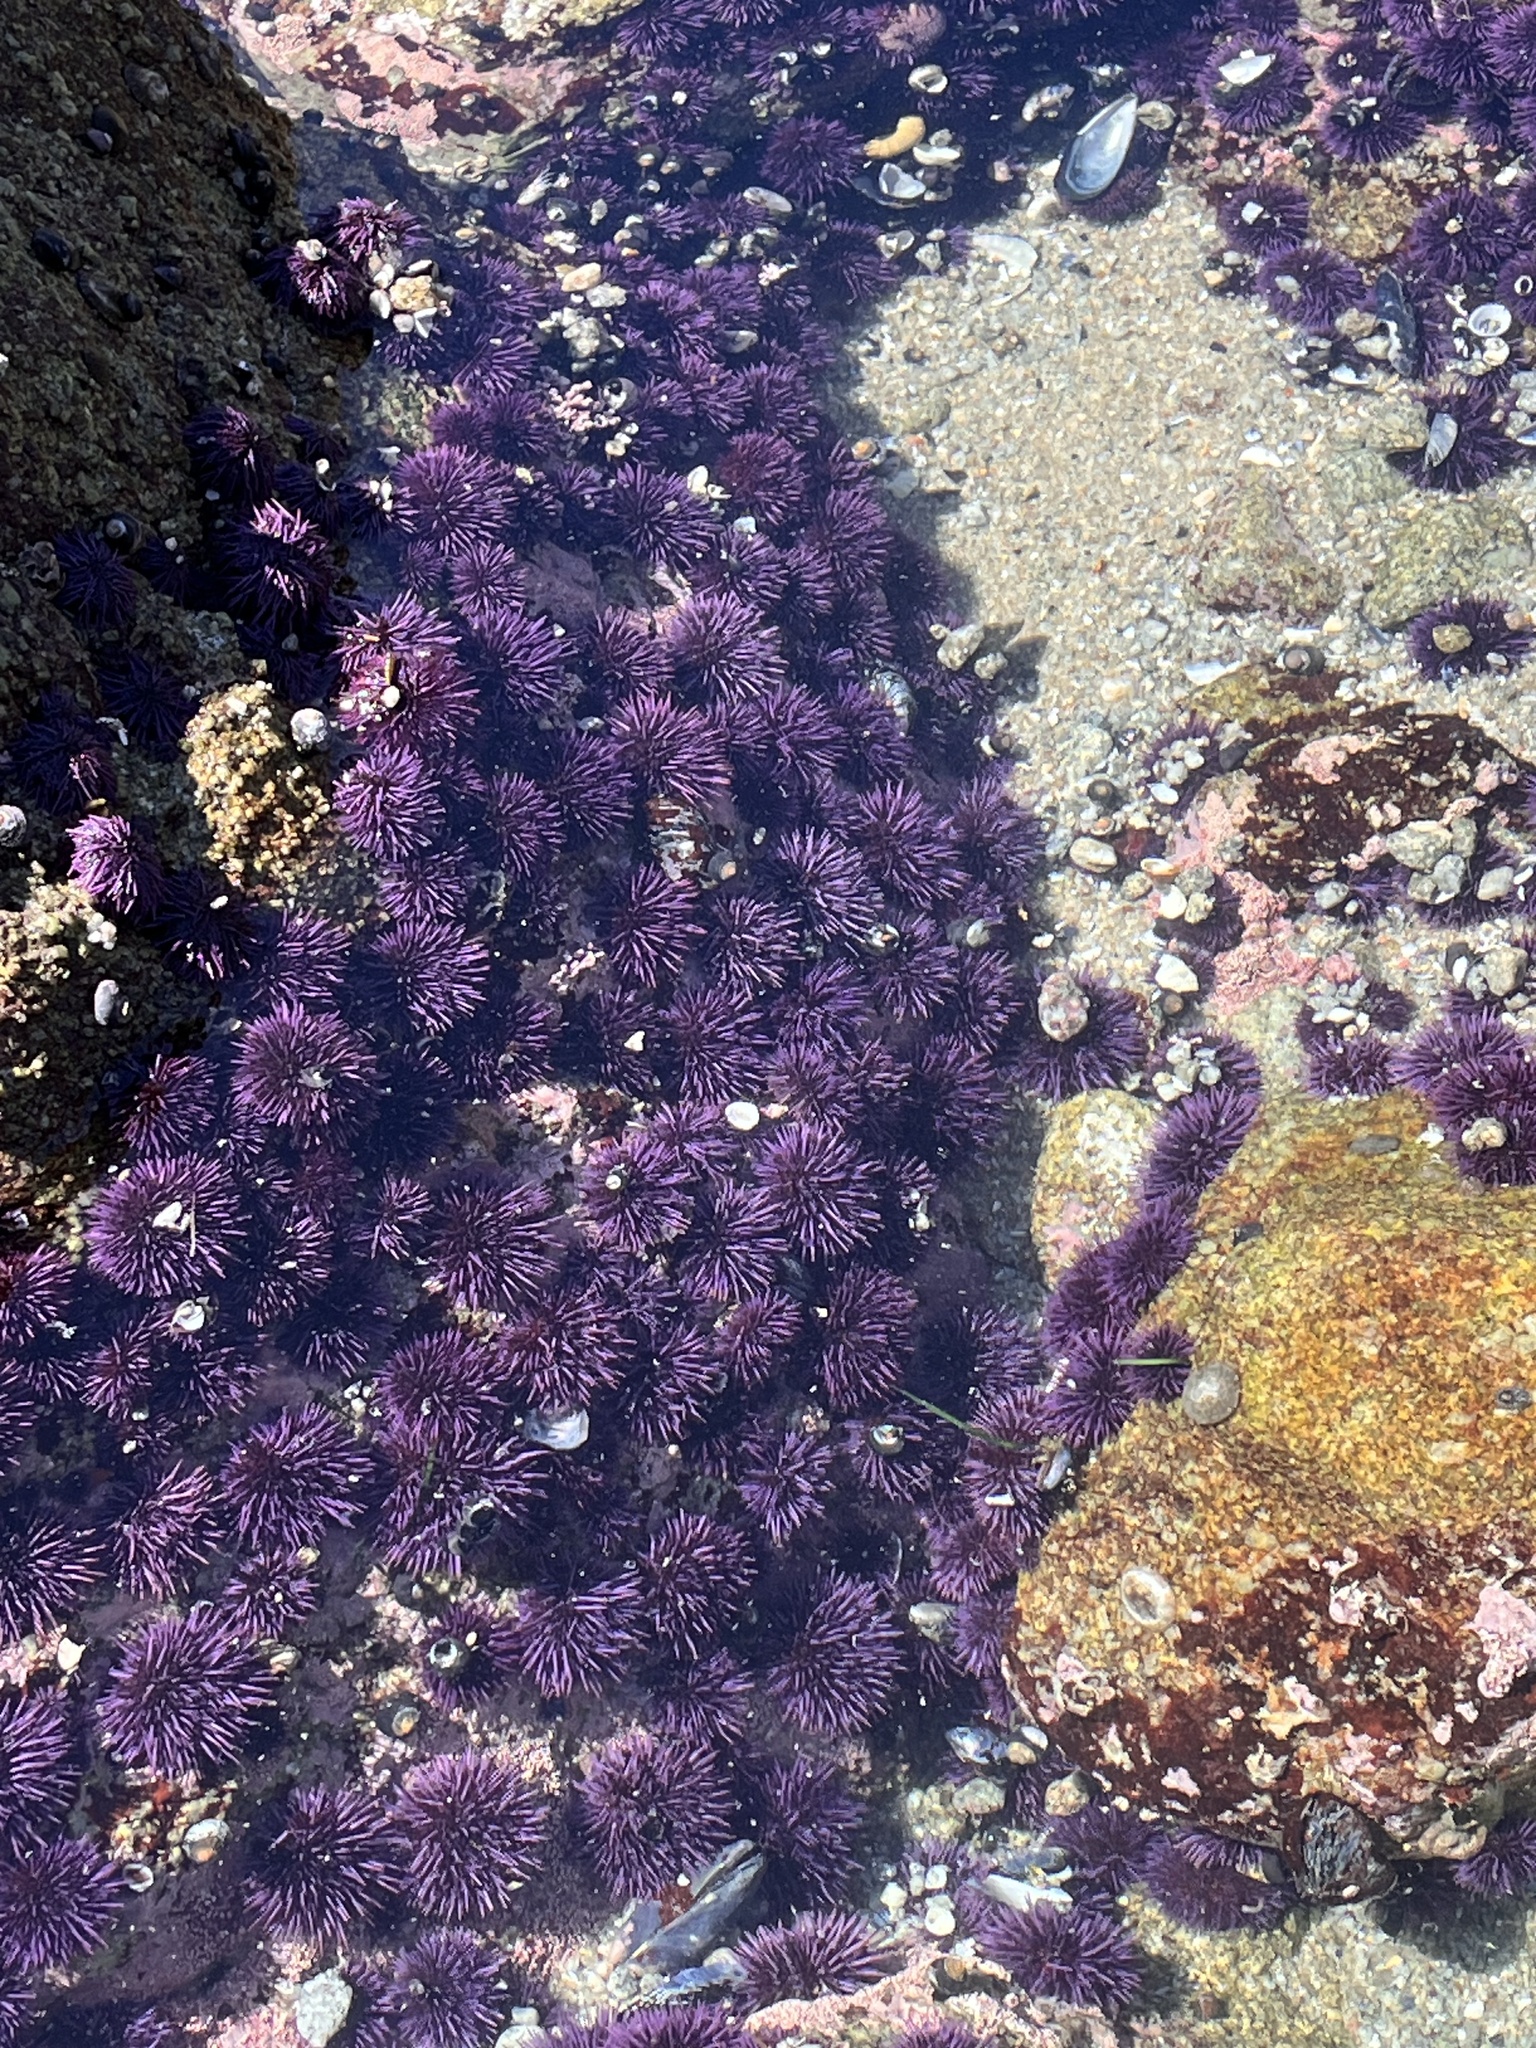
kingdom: Animalia
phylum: Echinodermata
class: Echinoidea
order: Camarodonta
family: Strongylocentrotidae
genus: Strongylocentrotus
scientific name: Strongylocentrotus purpuratus
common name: Purple sea urchin
